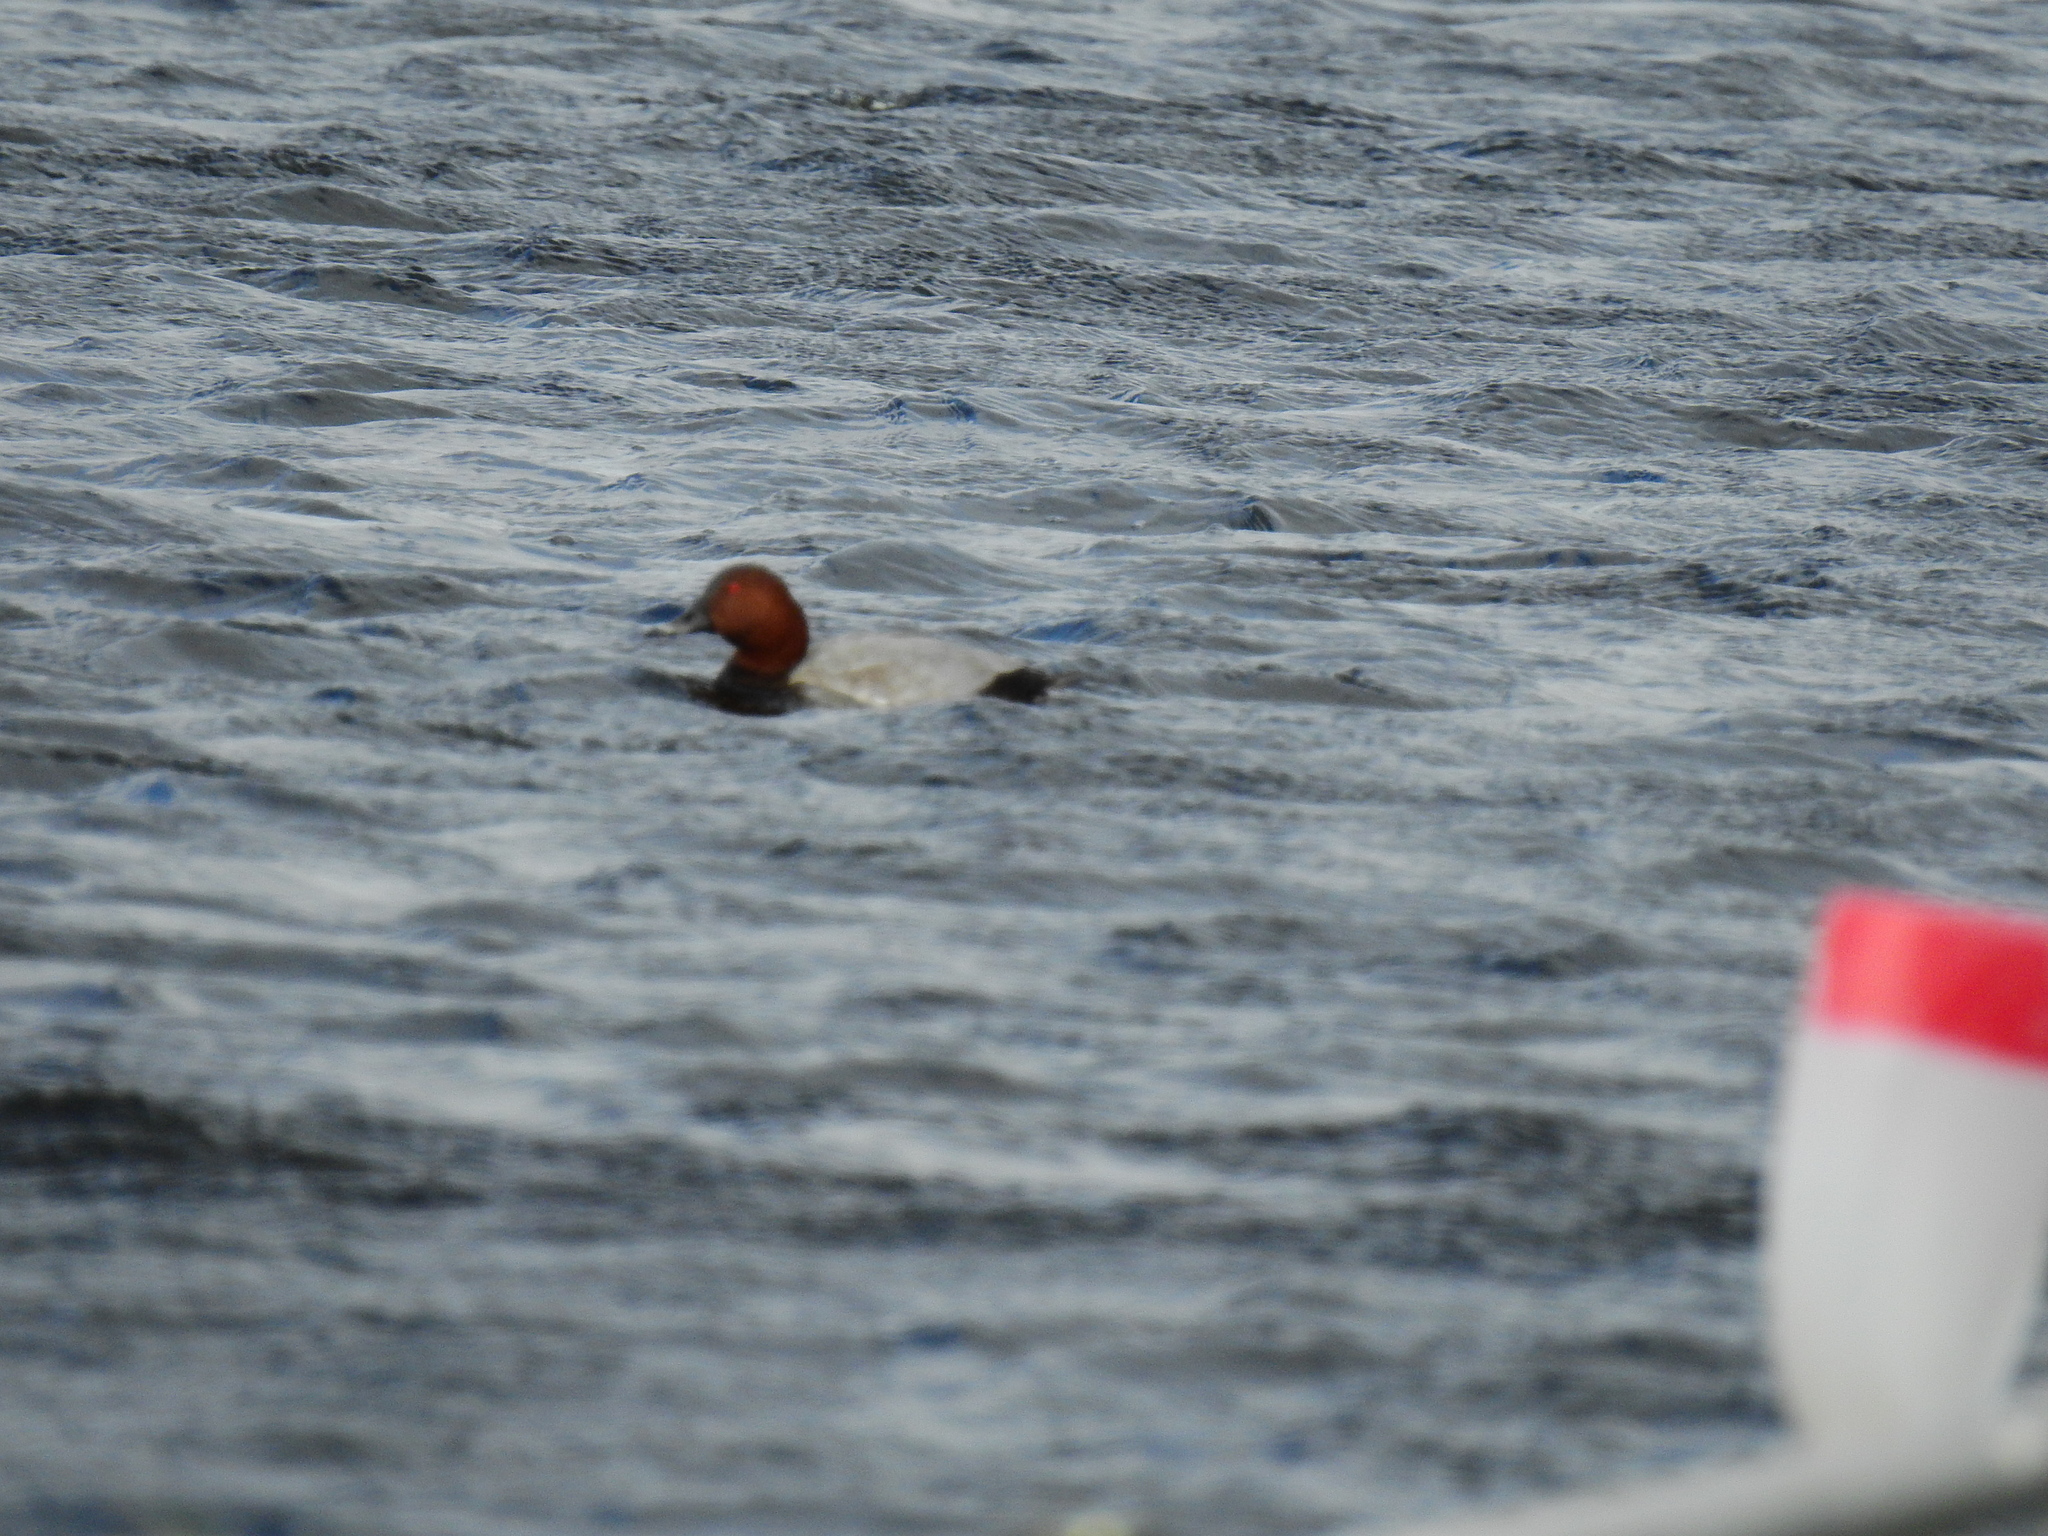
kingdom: Animalia
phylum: Chordata
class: Aves
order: Anseriformes
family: Anatidae
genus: Aythya
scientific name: Aythya ferina
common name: Common pochard
